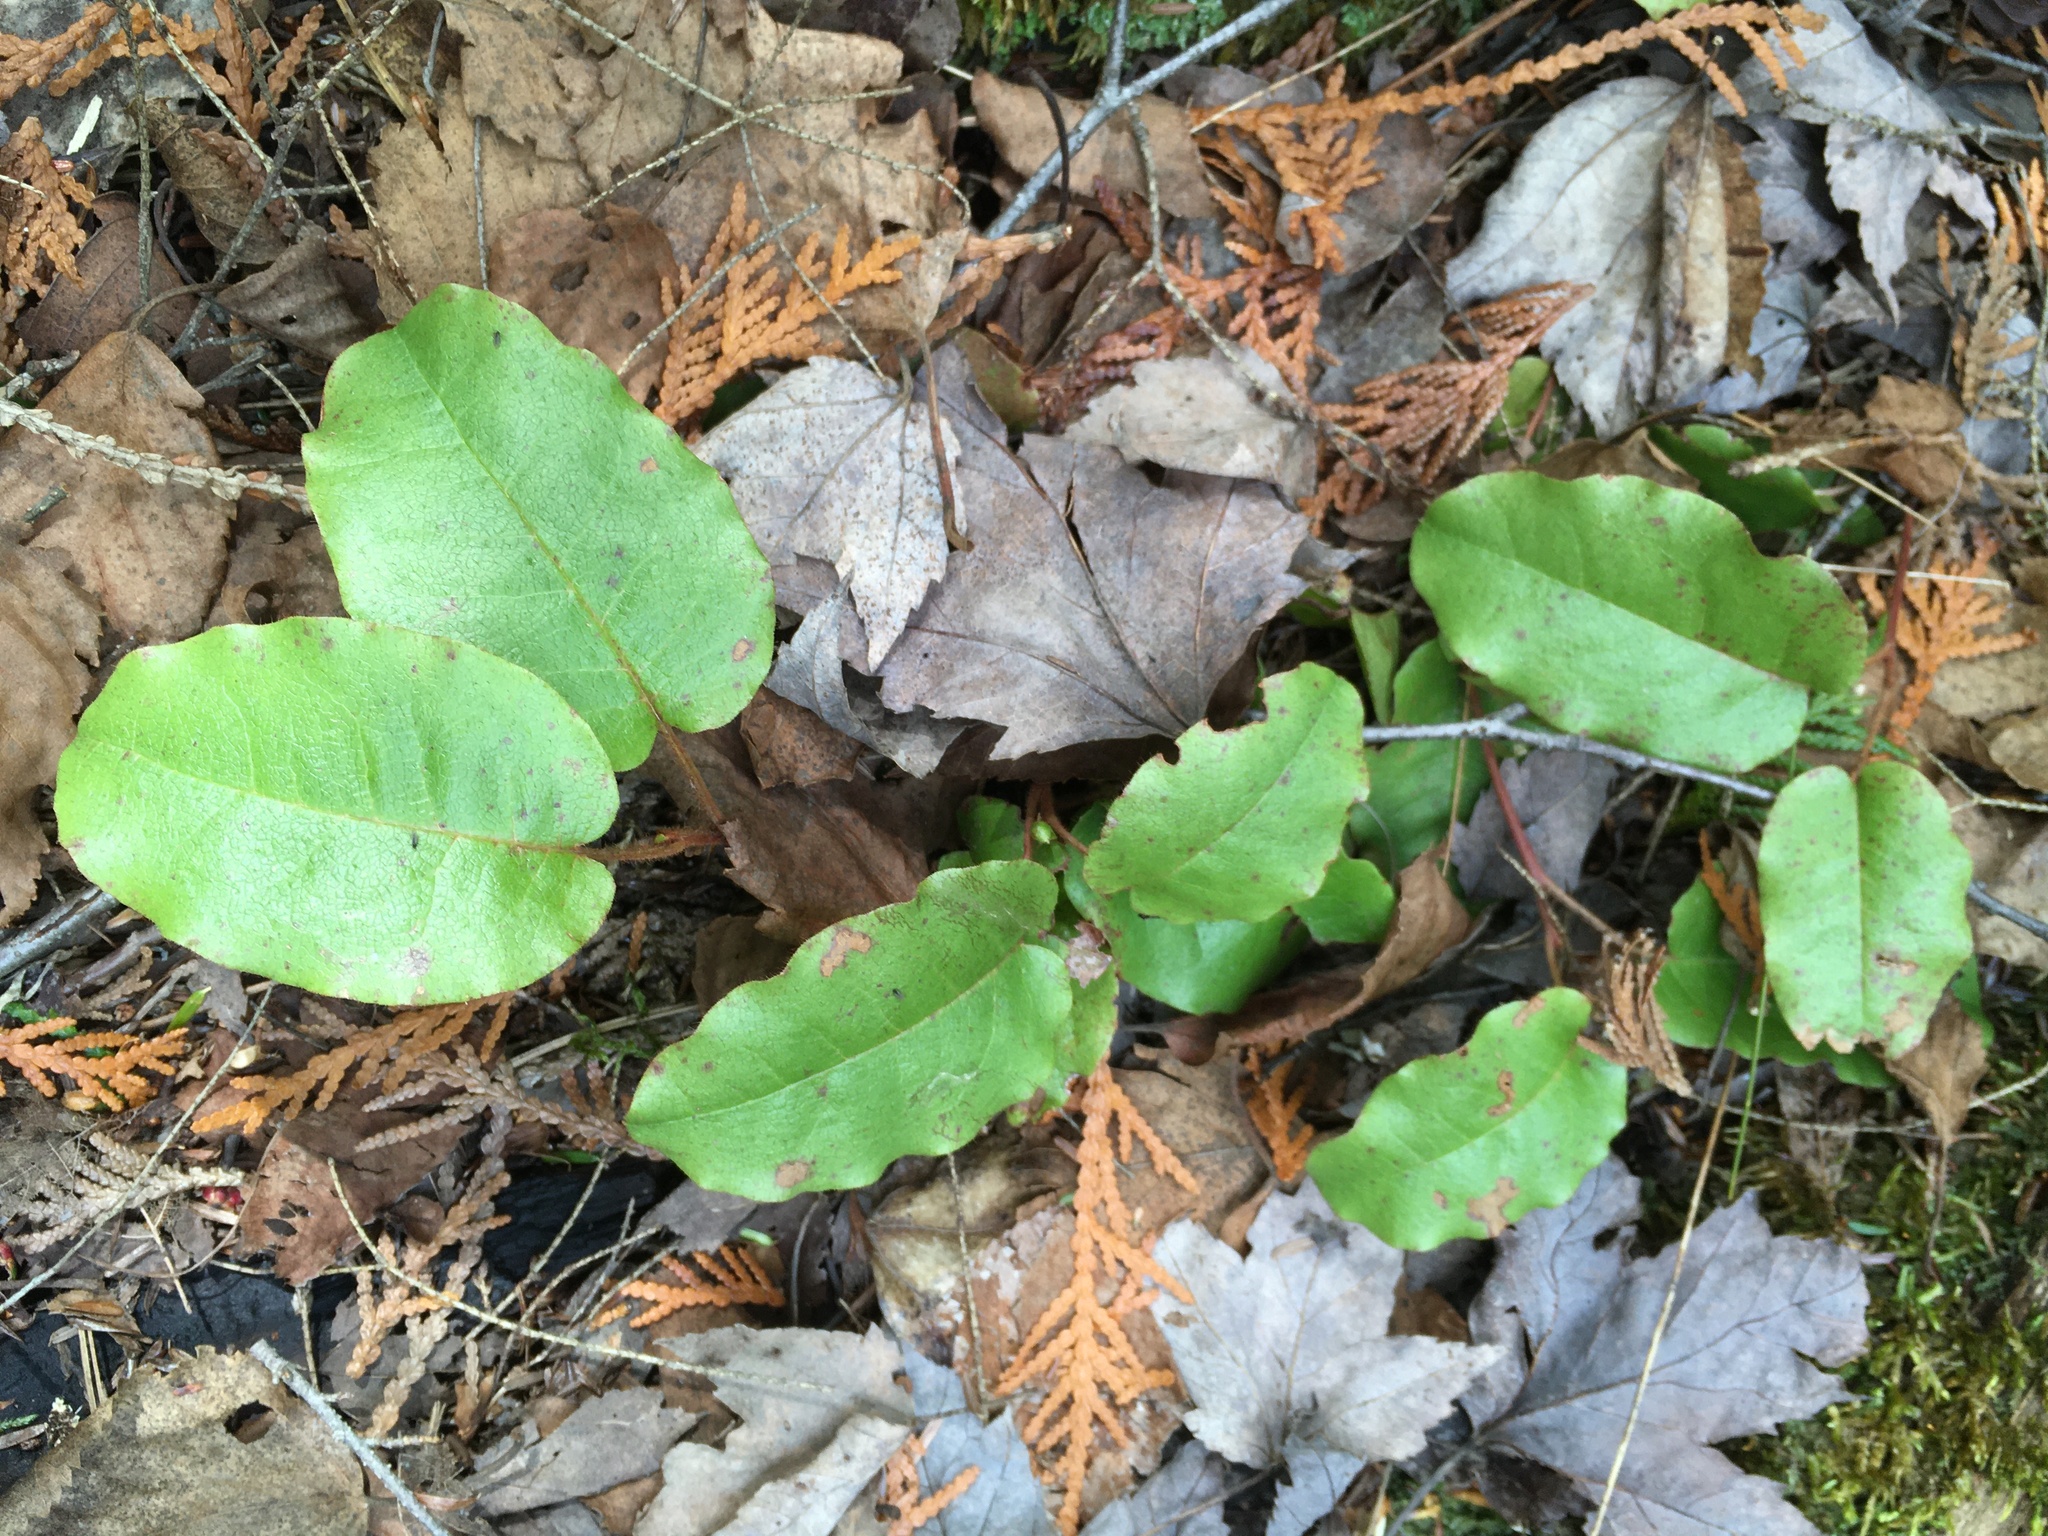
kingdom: Plantae
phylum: Tracheophyta
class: Magnoliopsida
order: Ericales
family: Ericaceae
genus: Epigaea
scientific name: Epigaea repens
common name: Gravelroot
